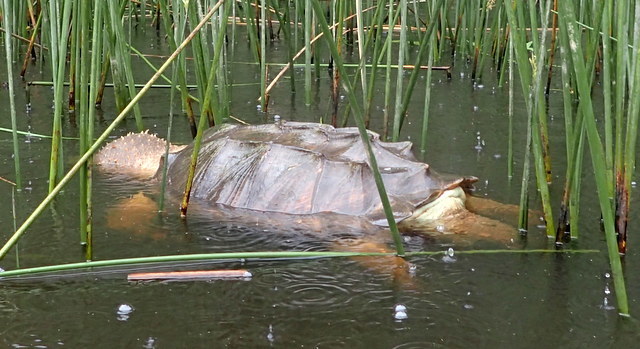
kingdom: Animalia
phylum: Chordata
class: Testudines
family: Chelydridae
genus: Macrochelys
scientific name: Macrochelys temminckii
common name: Alligator snapping turtle
